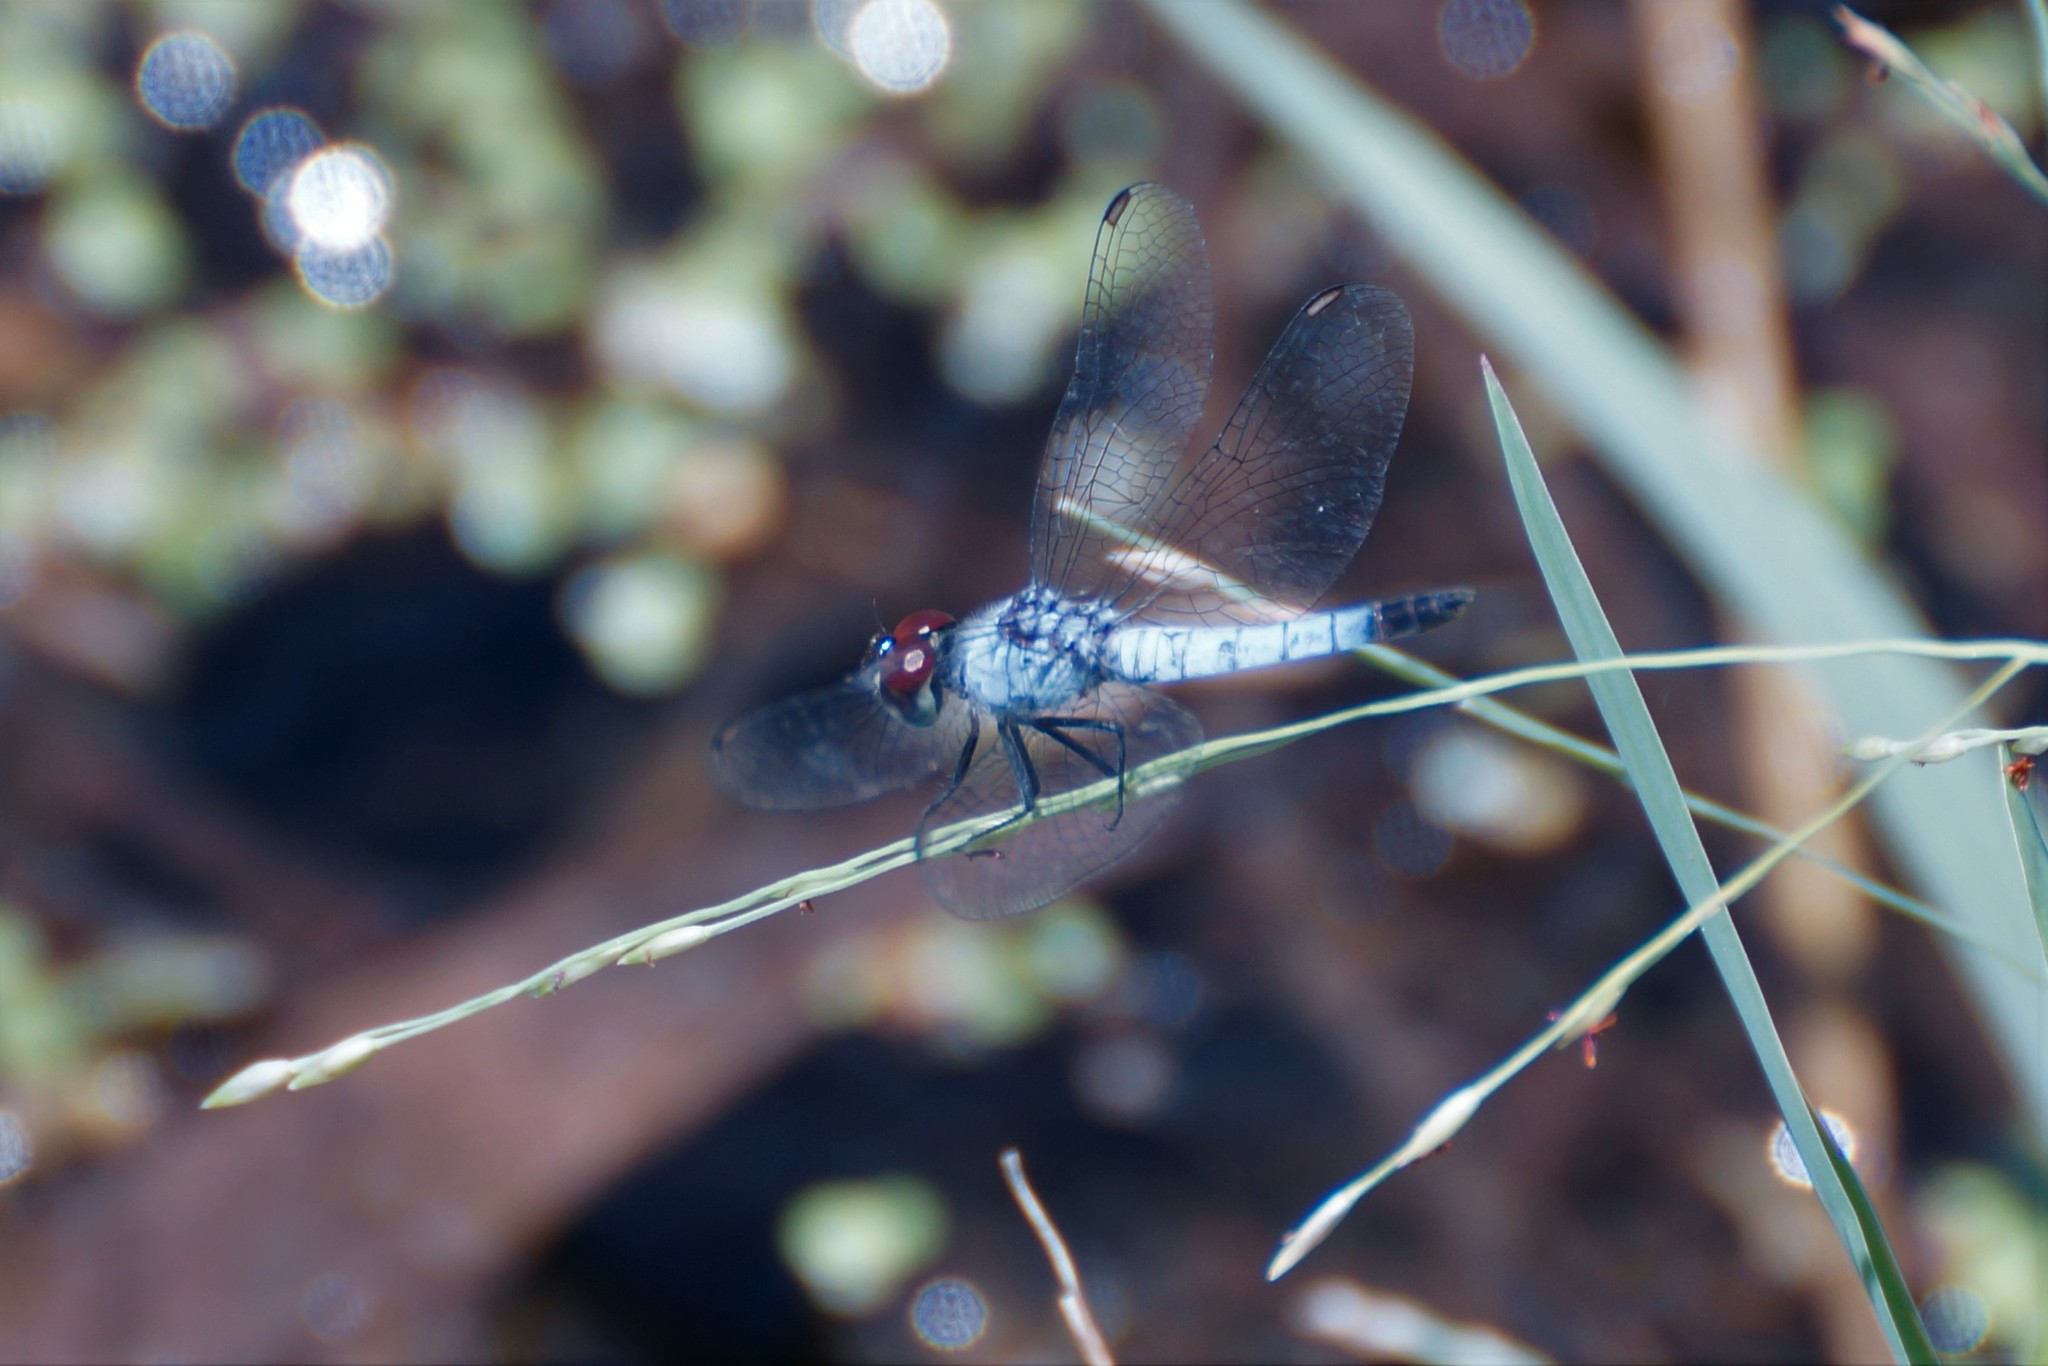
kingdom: Animalia
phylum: Arthropoda
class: Insecta
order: Odonata
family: Libellulidae
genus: Brachydiplax
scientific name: Brachydiplax denticauda
